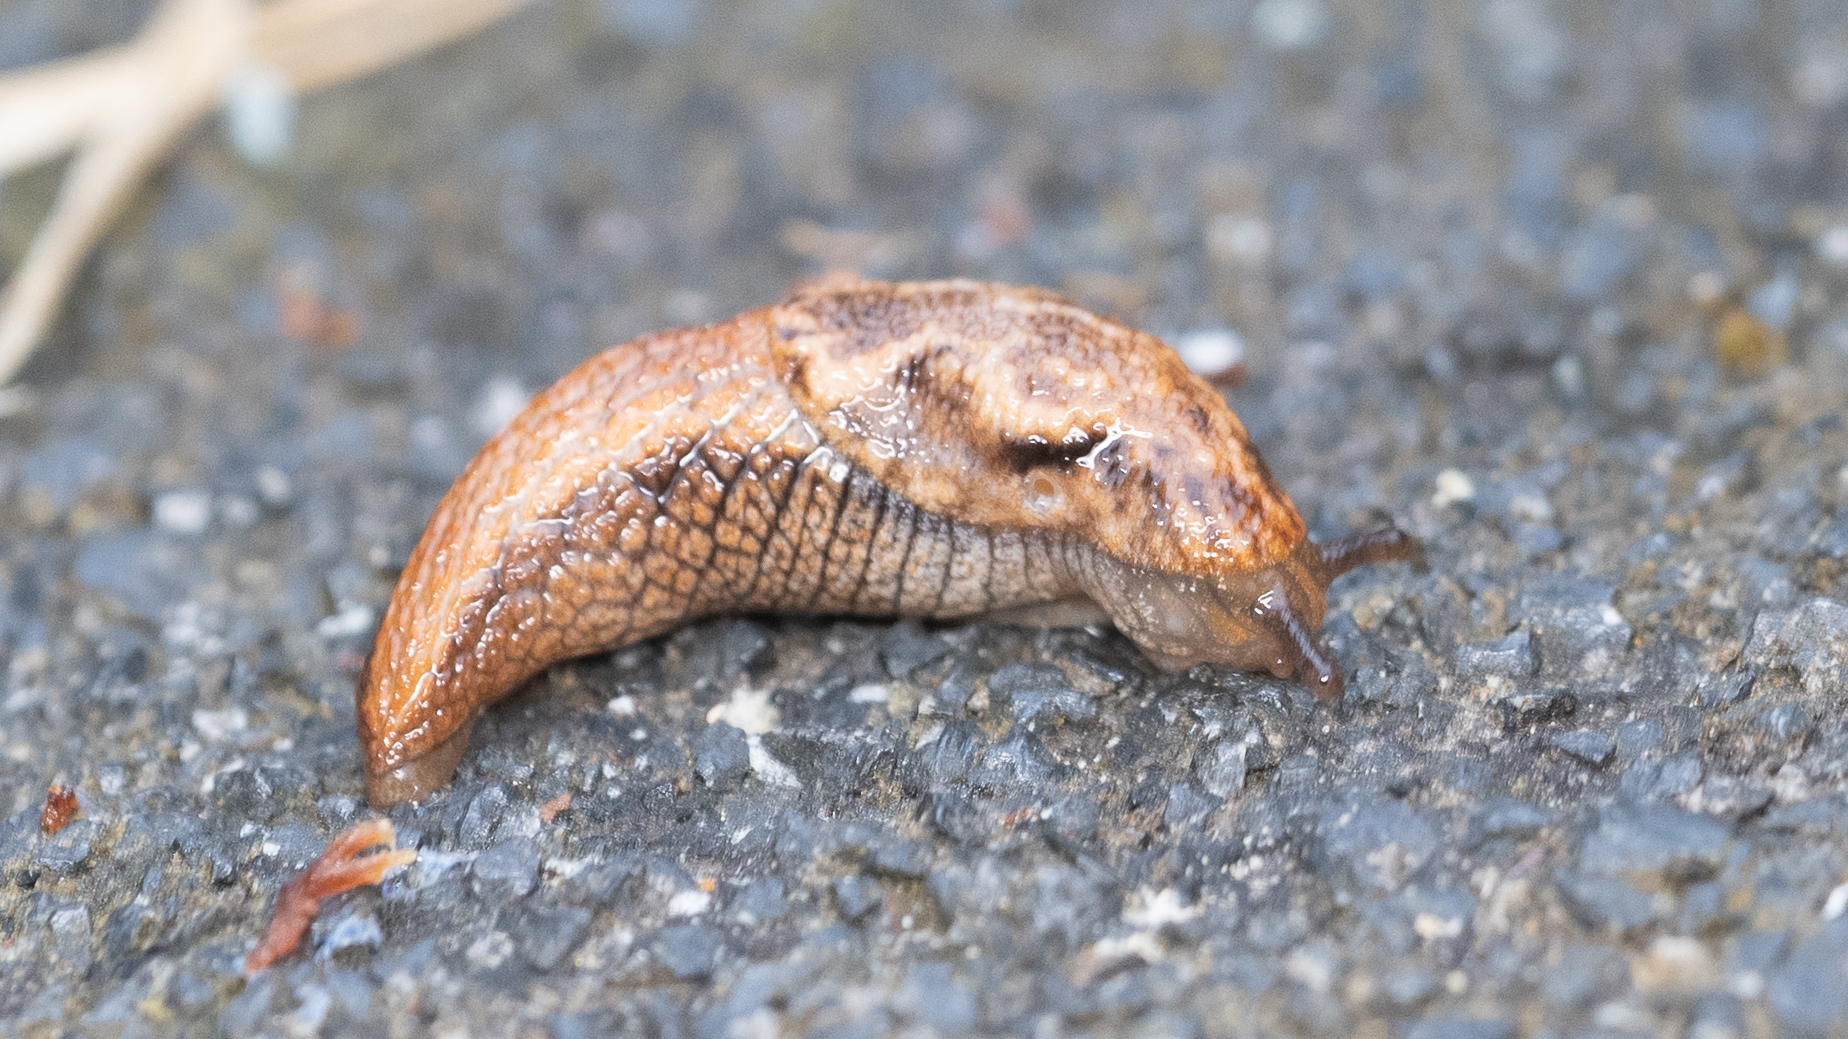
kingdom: Animalia
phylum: Mollusca
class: Gastropoda
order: Stylommatophora
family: Ariolimacidae
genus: Prophysaon
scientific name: Prophysaon vanattae
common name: Scarletback taildropper
